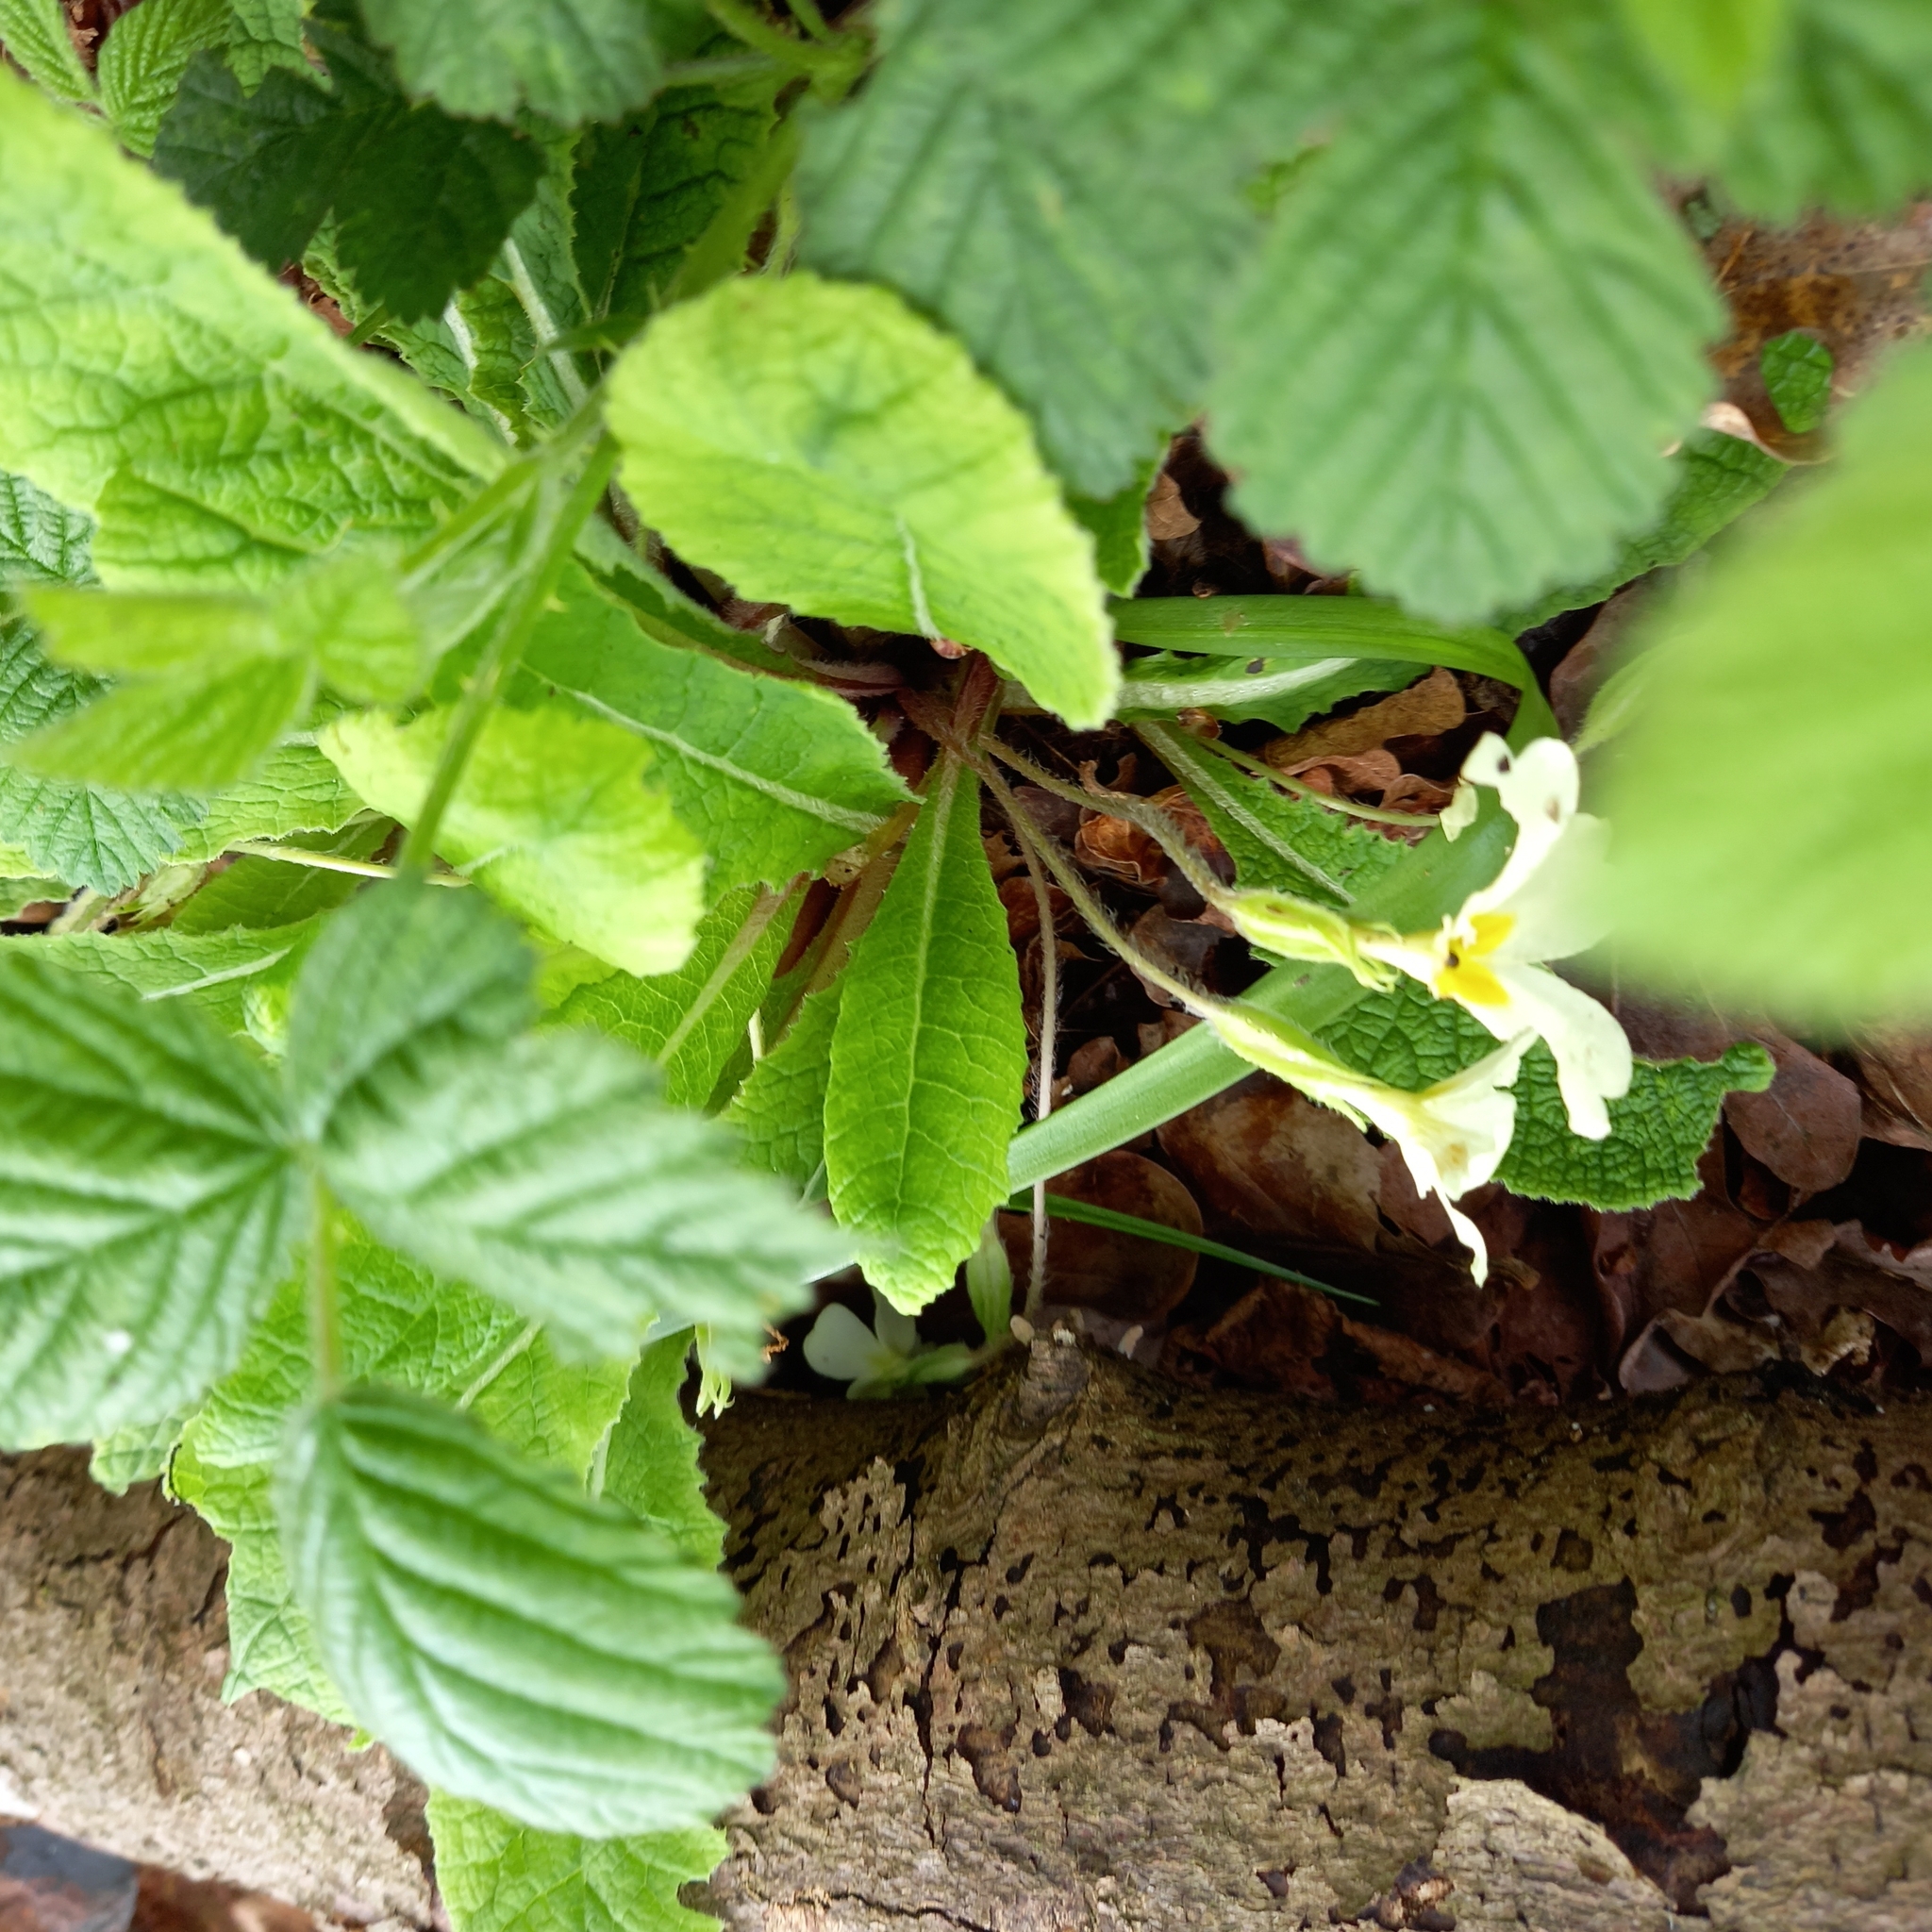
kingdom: Plantae
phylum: Tracheophyta
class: Magnoliopsida
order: Ericales
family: Primulaceae
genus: Primula
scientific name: Primula vulgaris
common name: Primrose
